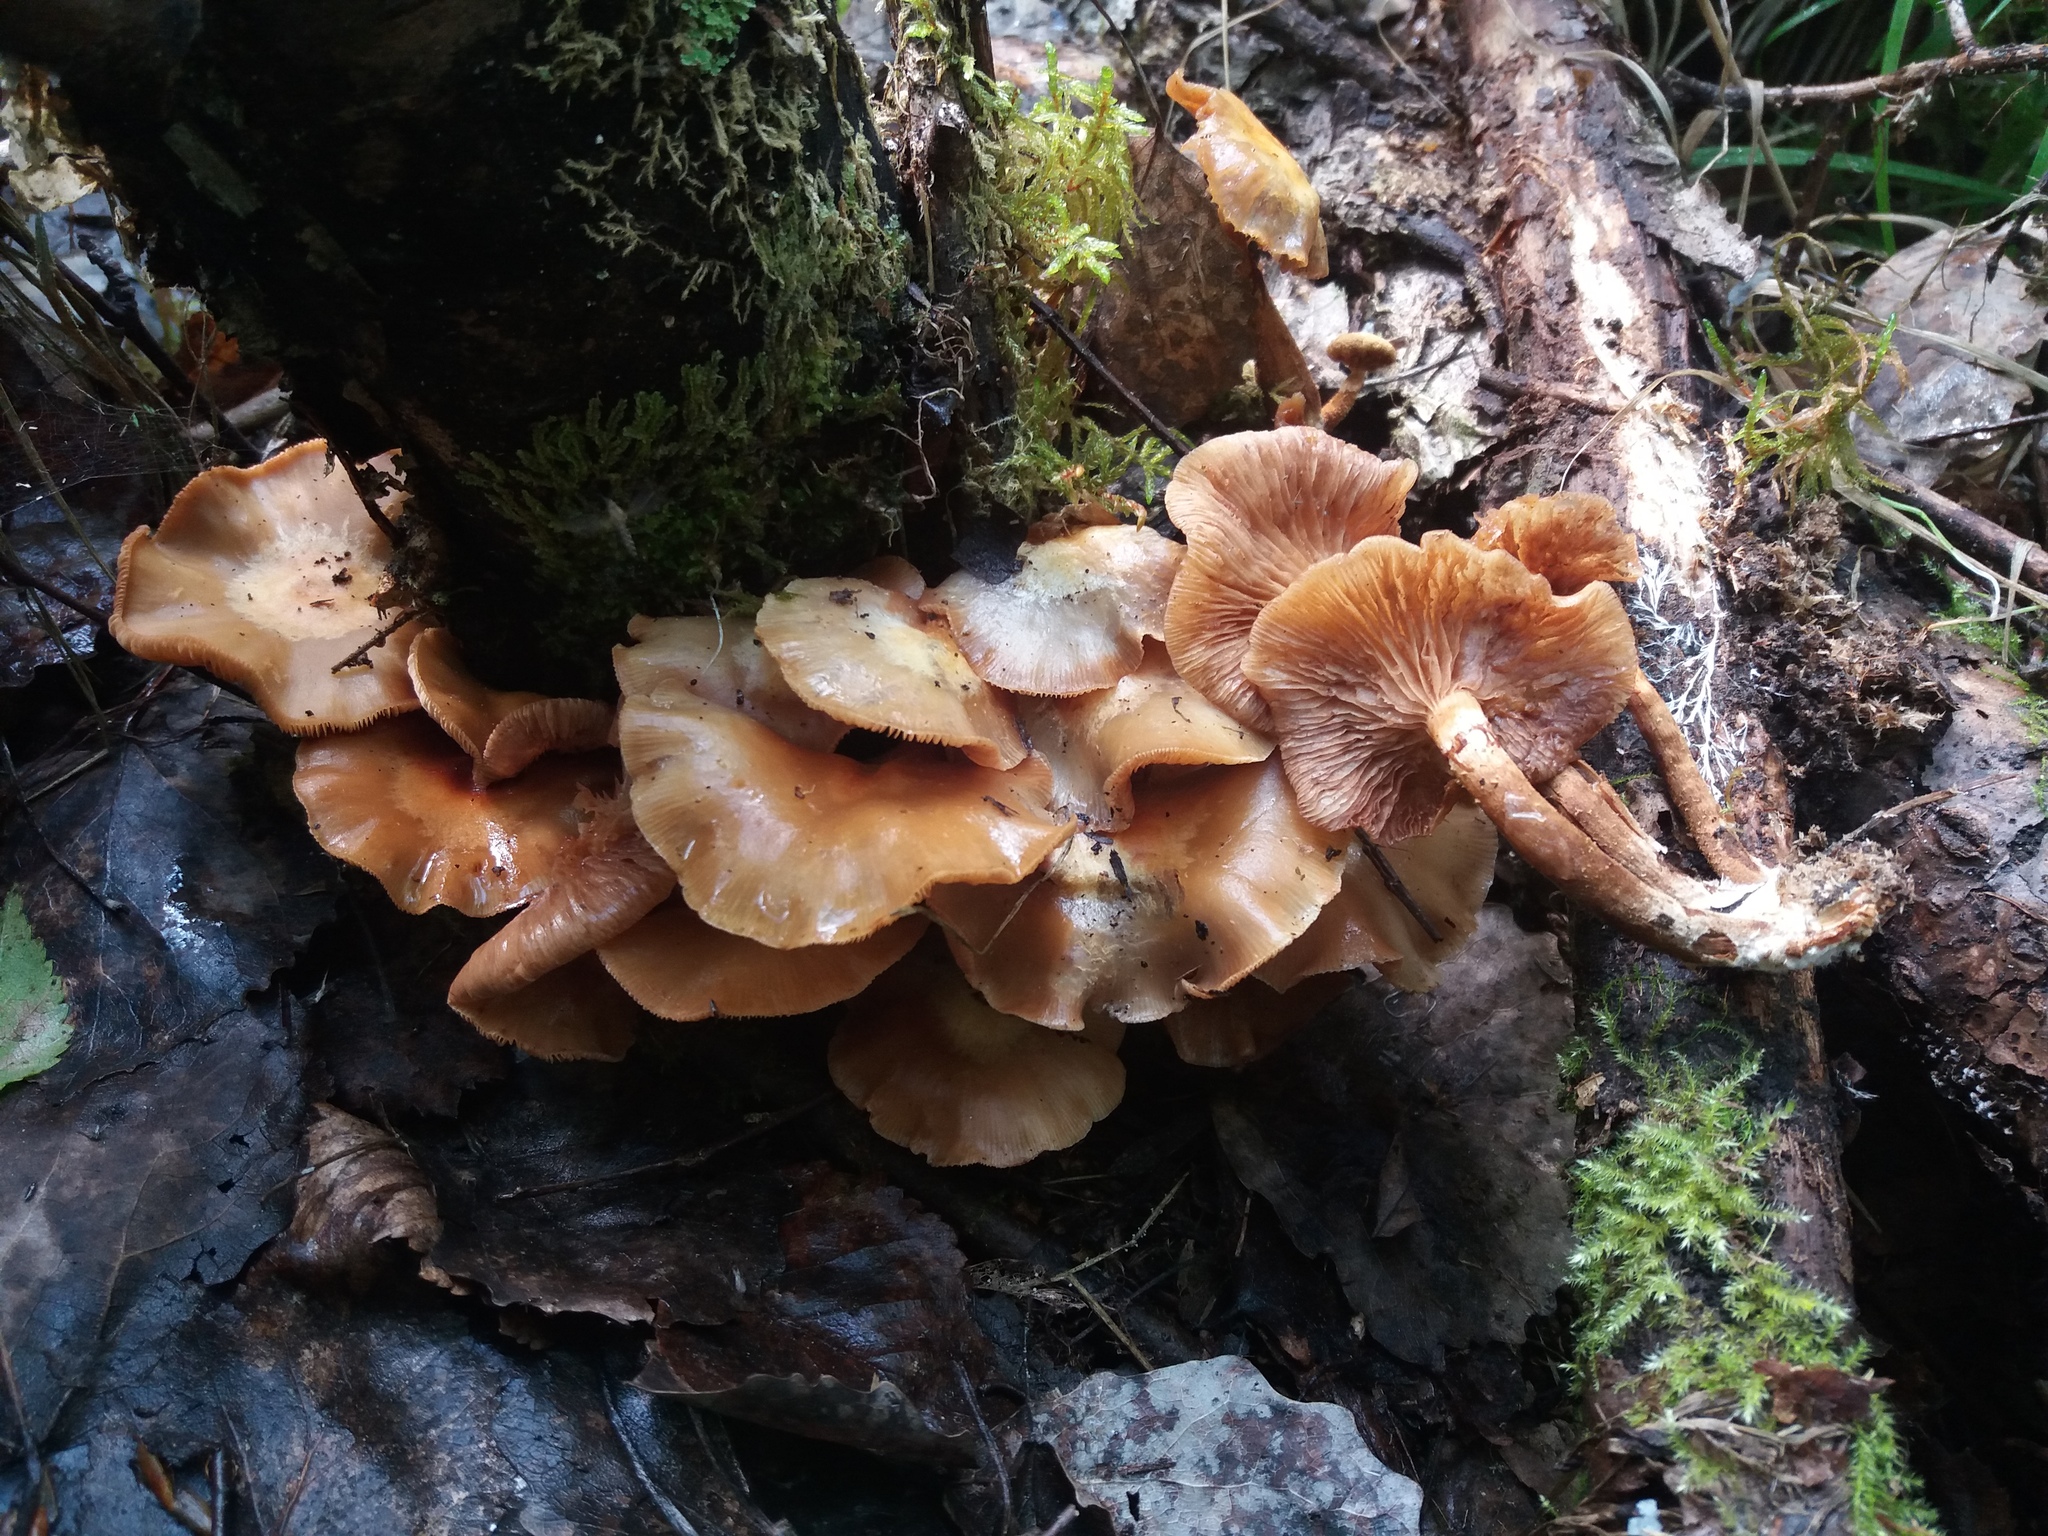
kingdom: Fungi
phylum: Basidiomycota
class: Agaricomycetes
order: Agaricales
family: Strophariaceae
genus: Kuehneromyces
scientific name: Kuehneromyces mutabilis
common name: Sheathed woodtuft
